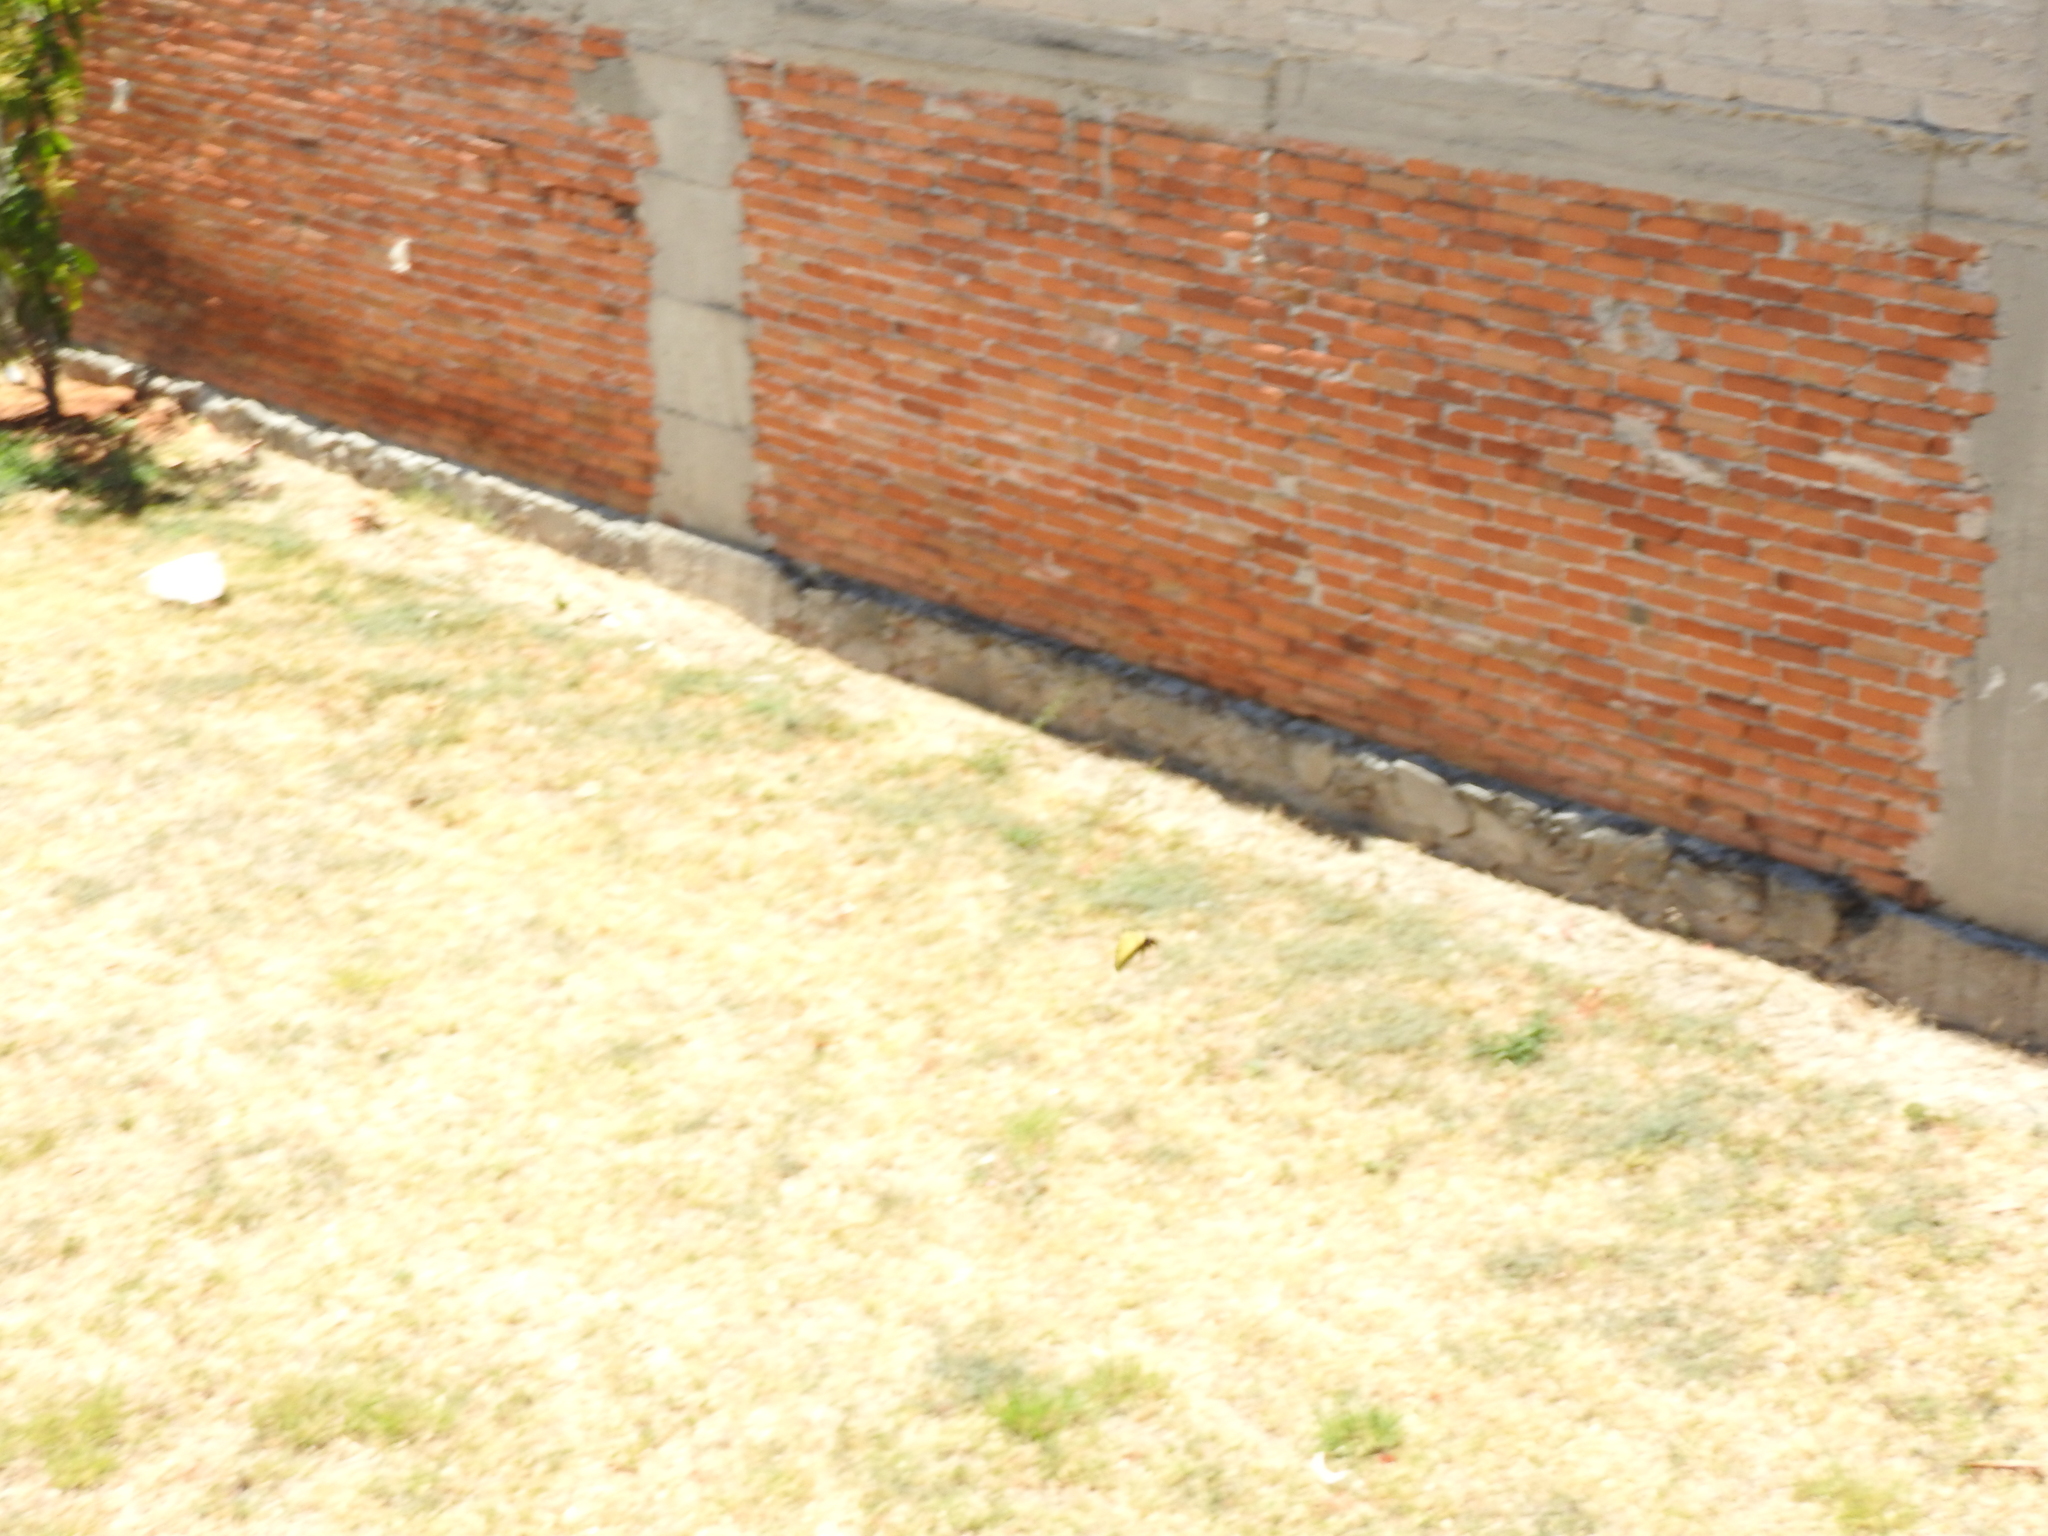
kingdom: Animalia
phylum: Arthropoda
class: Insecta
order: Lepidoptera
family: Papilionidae
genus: Papilio
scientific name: Papilio multicaudata
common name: Two-tailed tiger swallowtail
